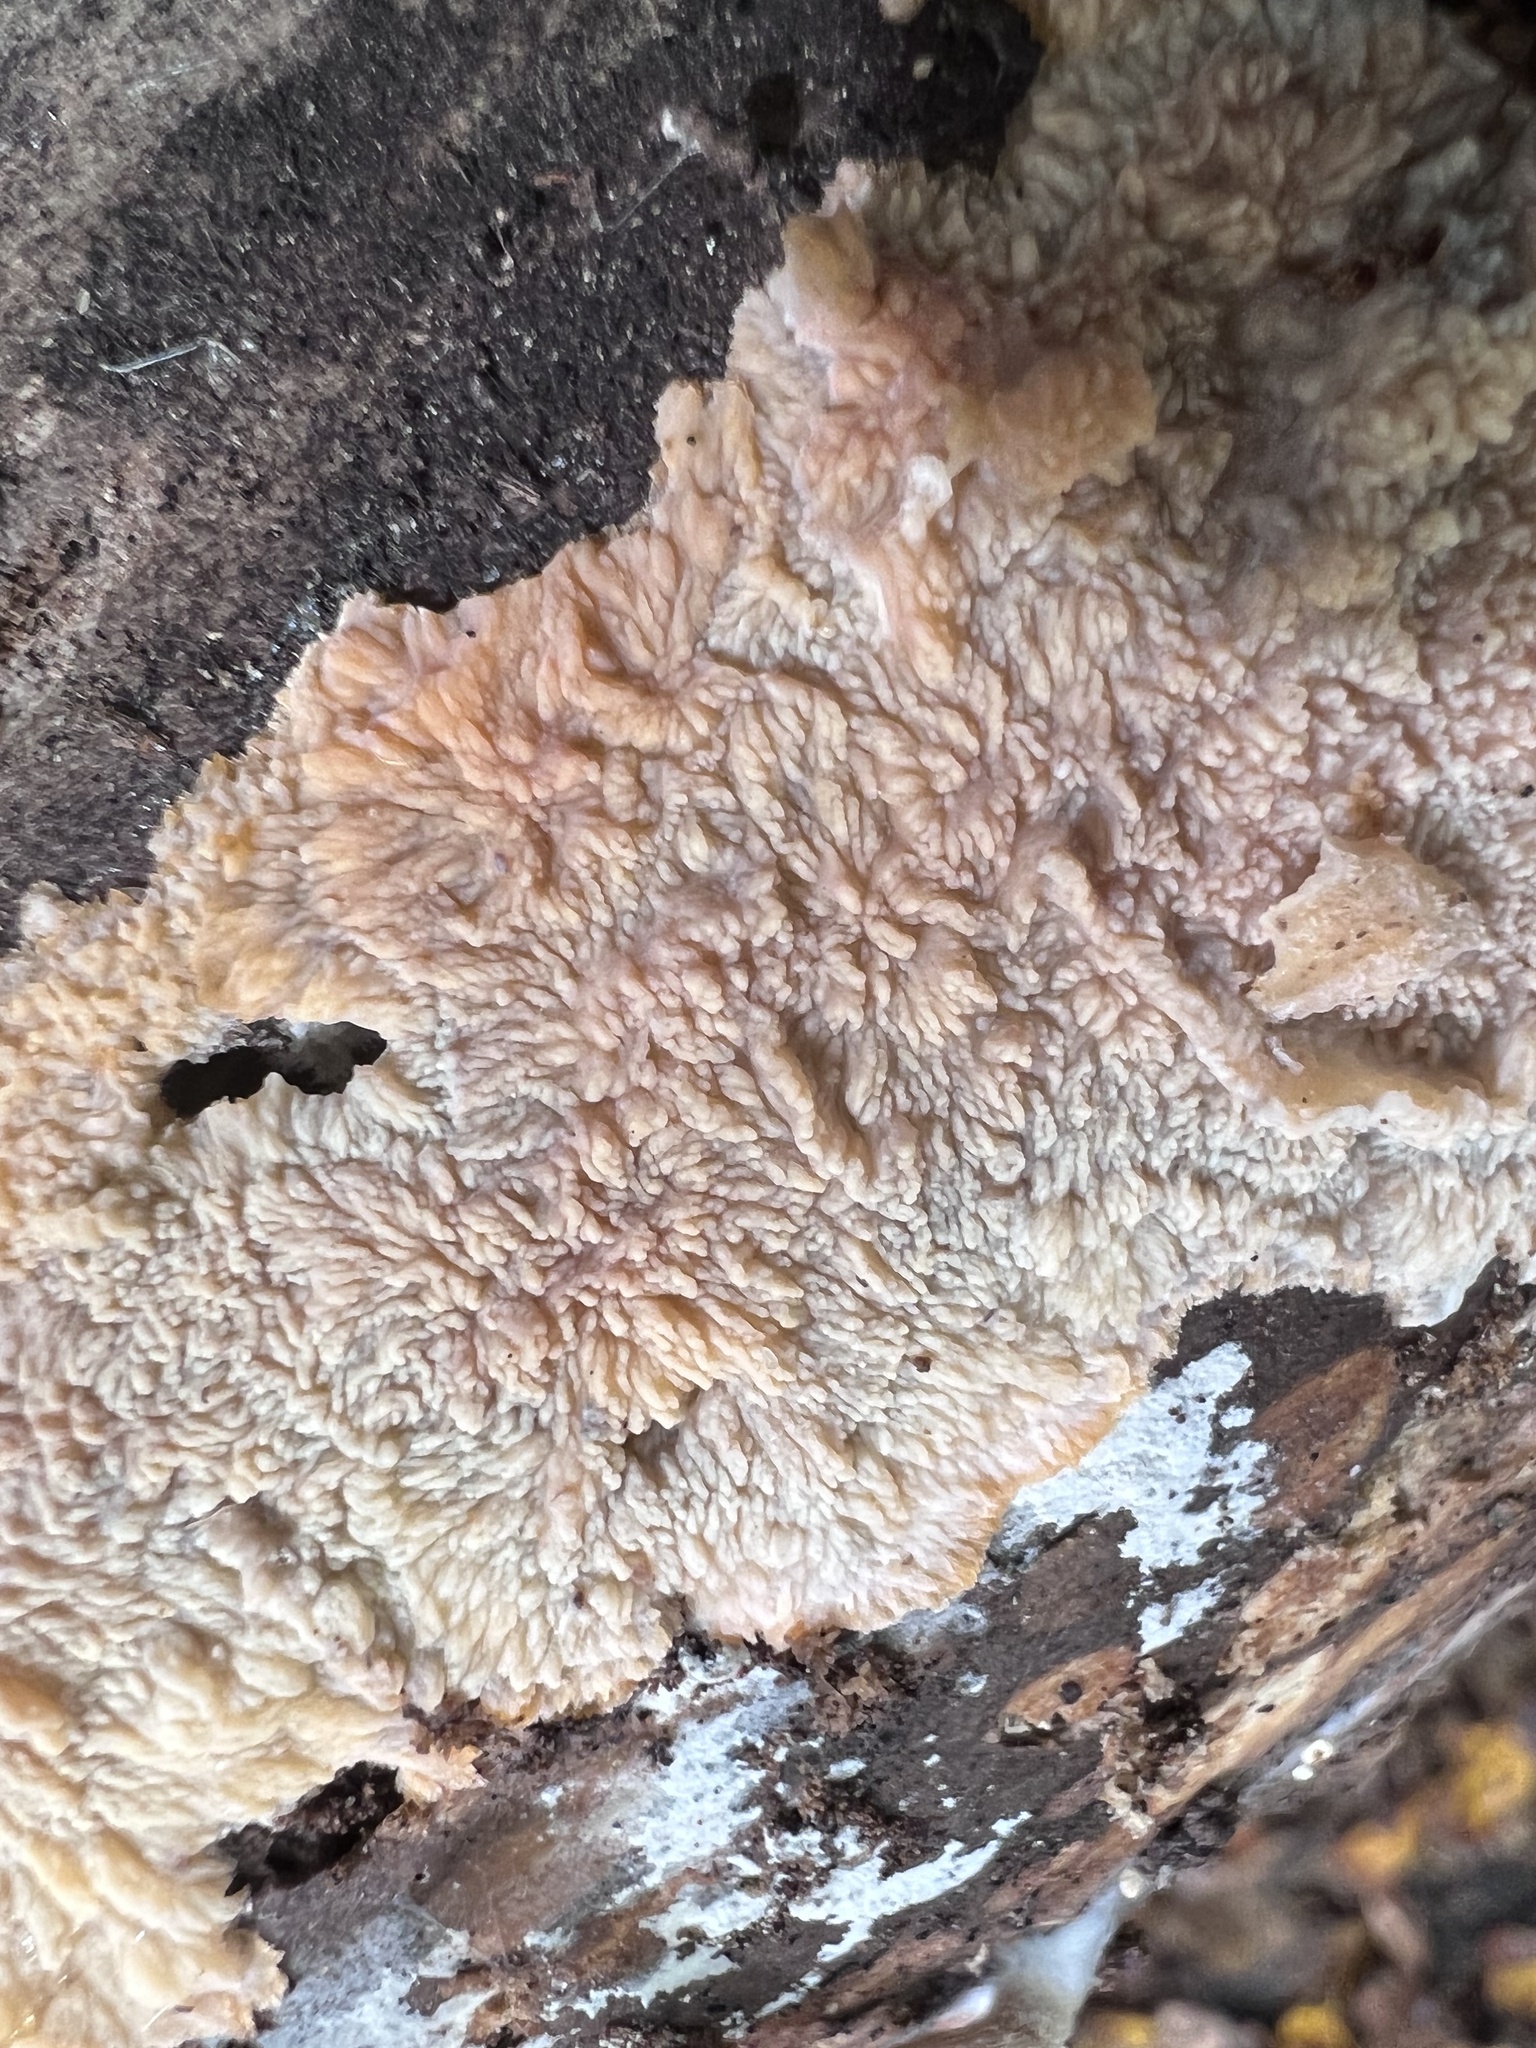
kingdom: Fungi
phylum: Basidiomycota
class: Agaricomycetes
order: Polyporales
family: Meruliaceae
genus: Phlebia
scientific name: Phlebia radiata
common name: Wrinkled crust
